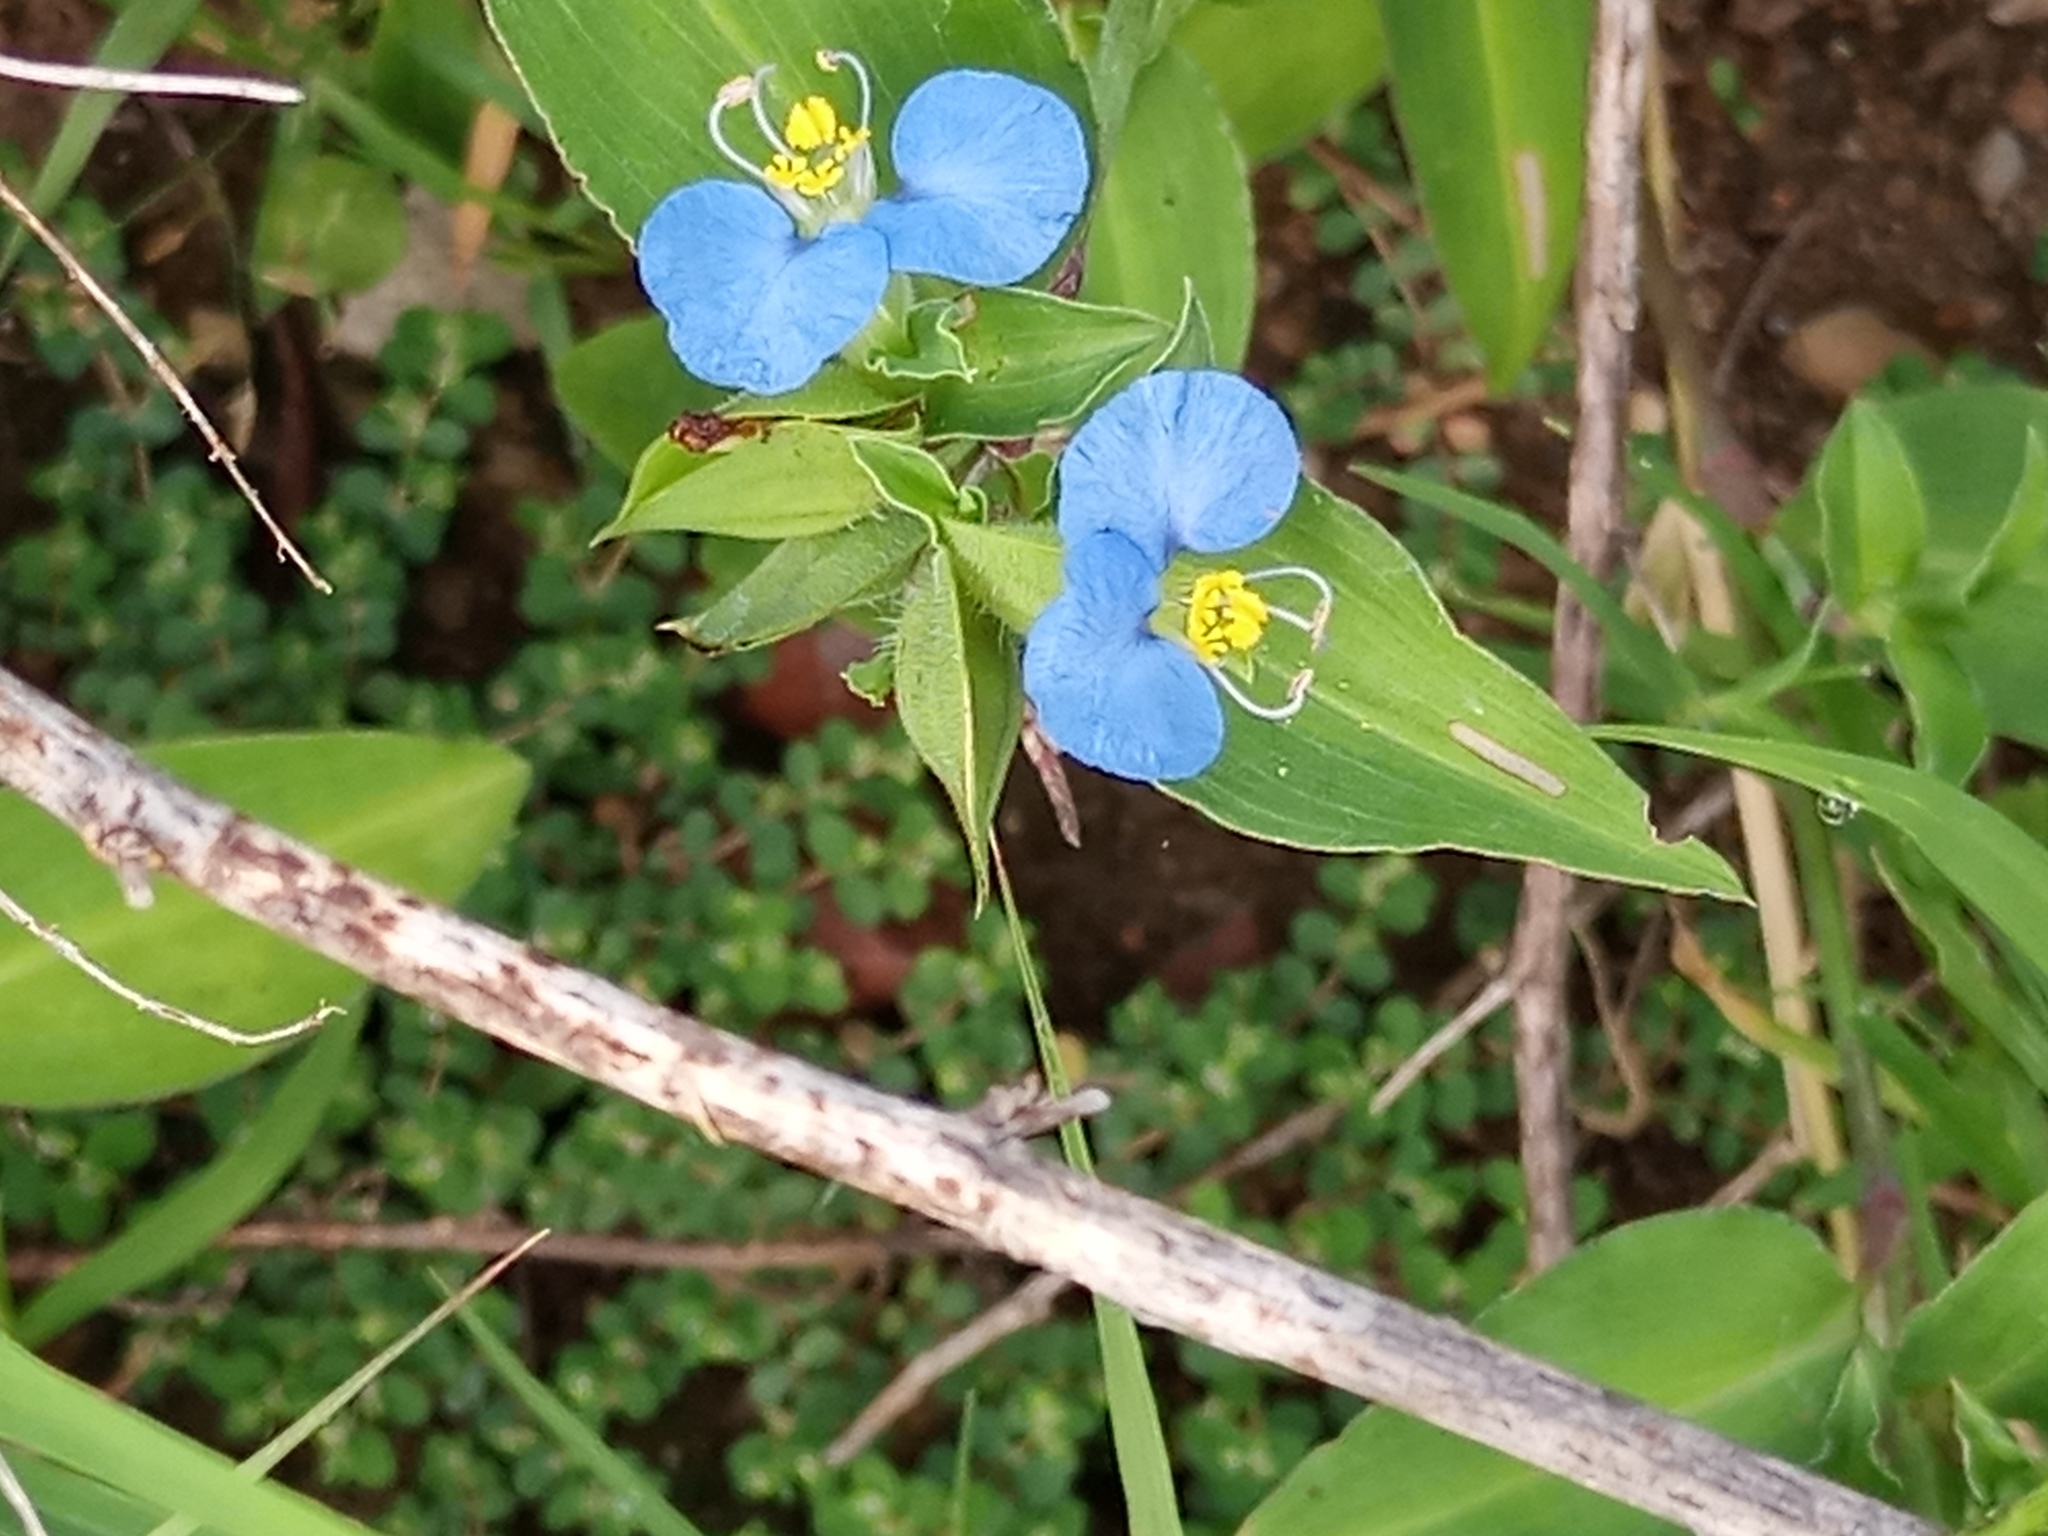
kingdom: Plantae
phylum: Tracheophyta
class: Liliopsida
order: Commelinales
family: Commelinaceae
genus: Commelina
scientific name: Commelina erecta
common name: Blousel blommetjie
